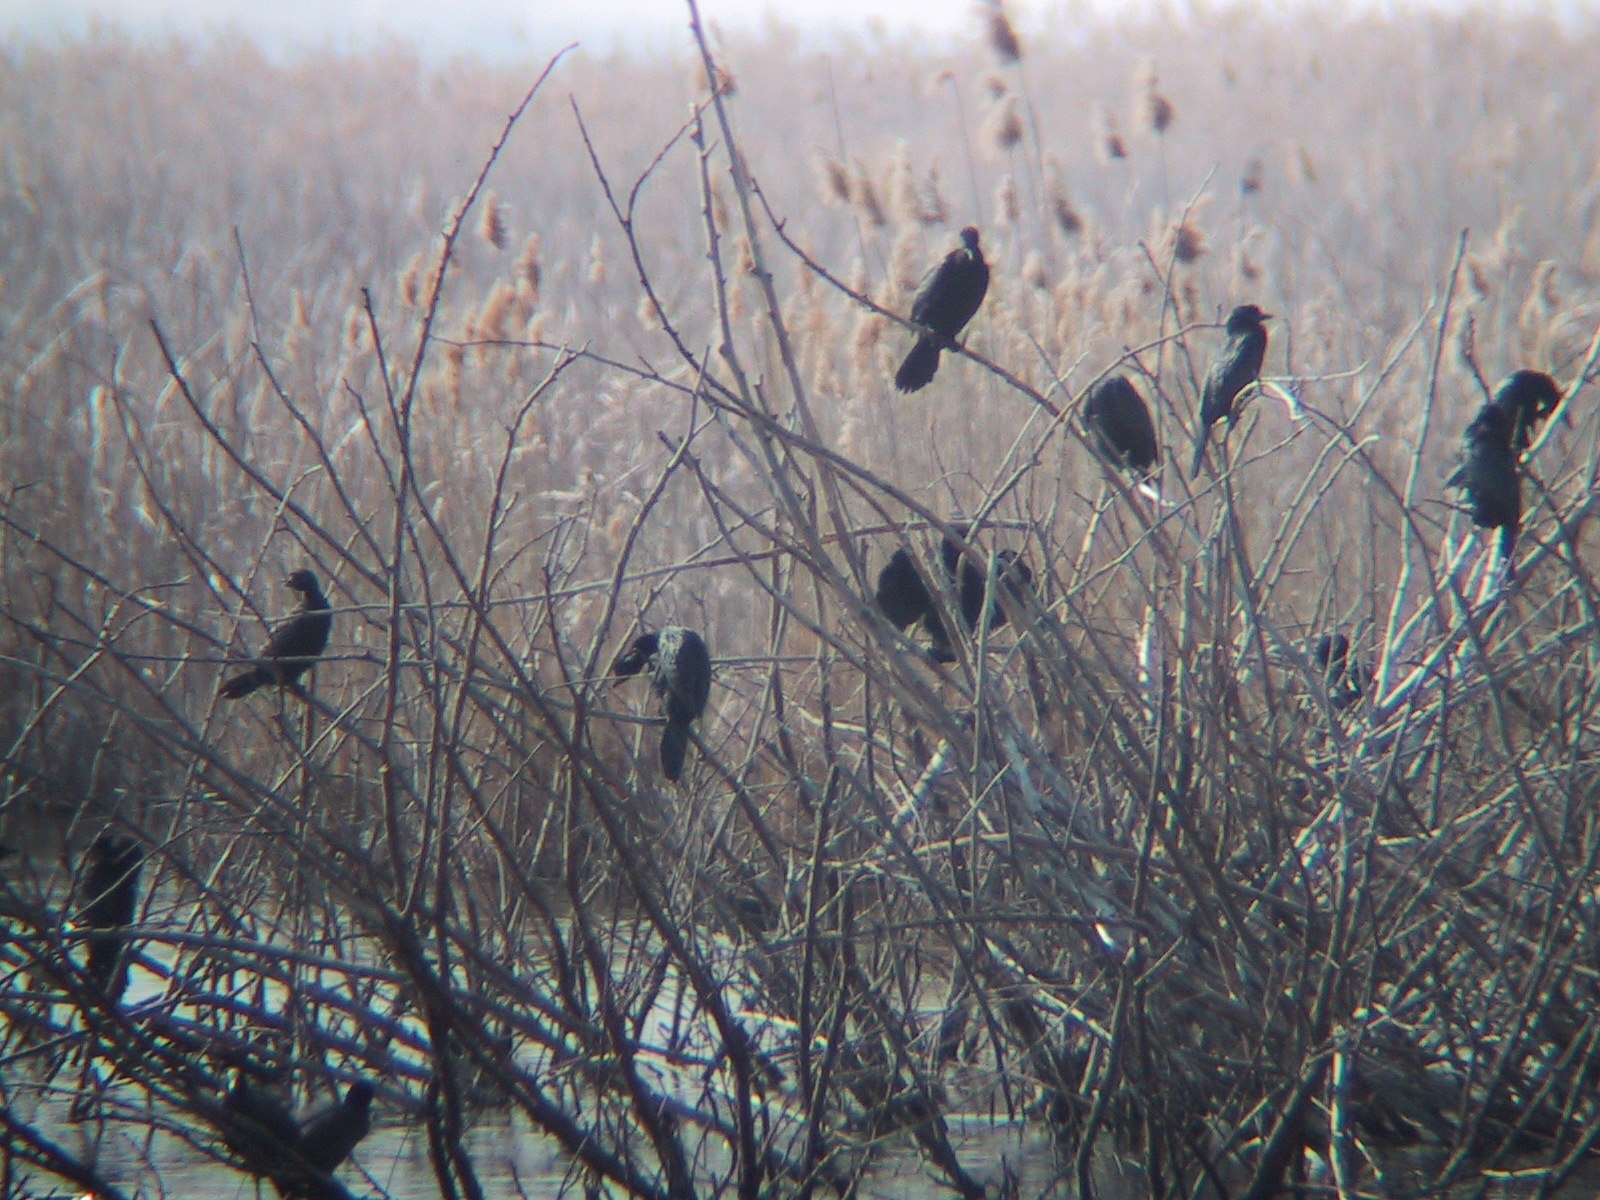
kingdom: Animalia
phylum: Chordata
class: Aves
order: Suliformes
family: Phalacrocoracidae
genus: Microcarbo
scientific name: Microcarbo pygmaeus
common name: Pygmy cormorant
